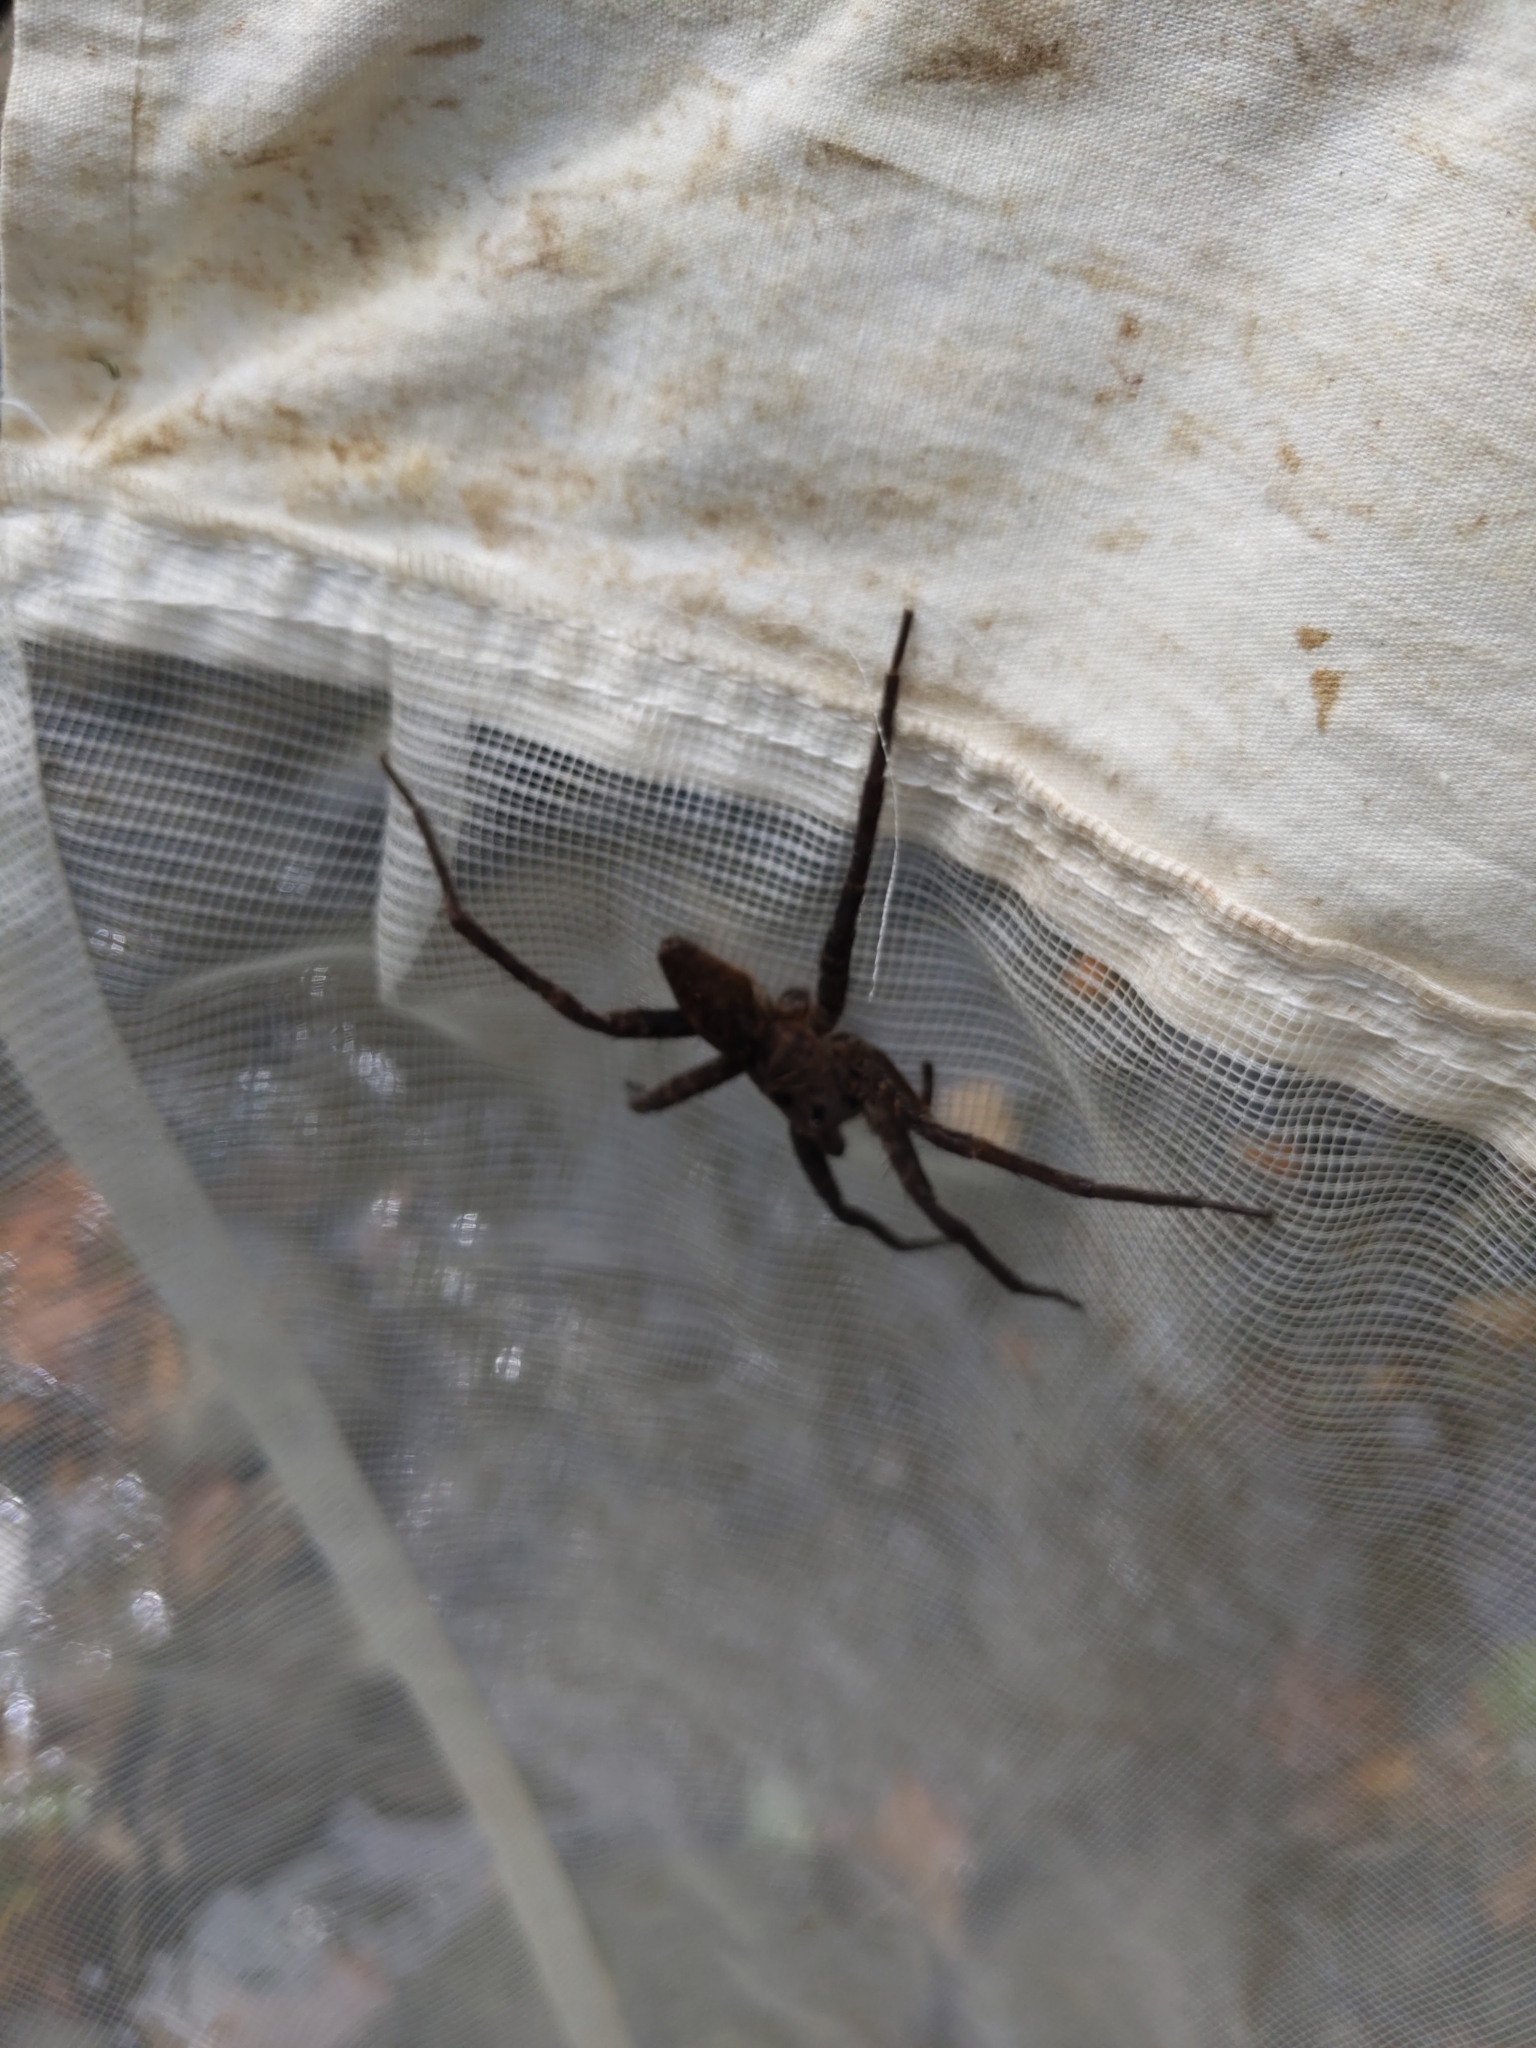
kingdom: Animalia
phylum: Arthropoda
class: Arachnida
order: Araneae
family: Pisauridae
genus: Dolomedes
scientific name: Dolomedes vittatus
